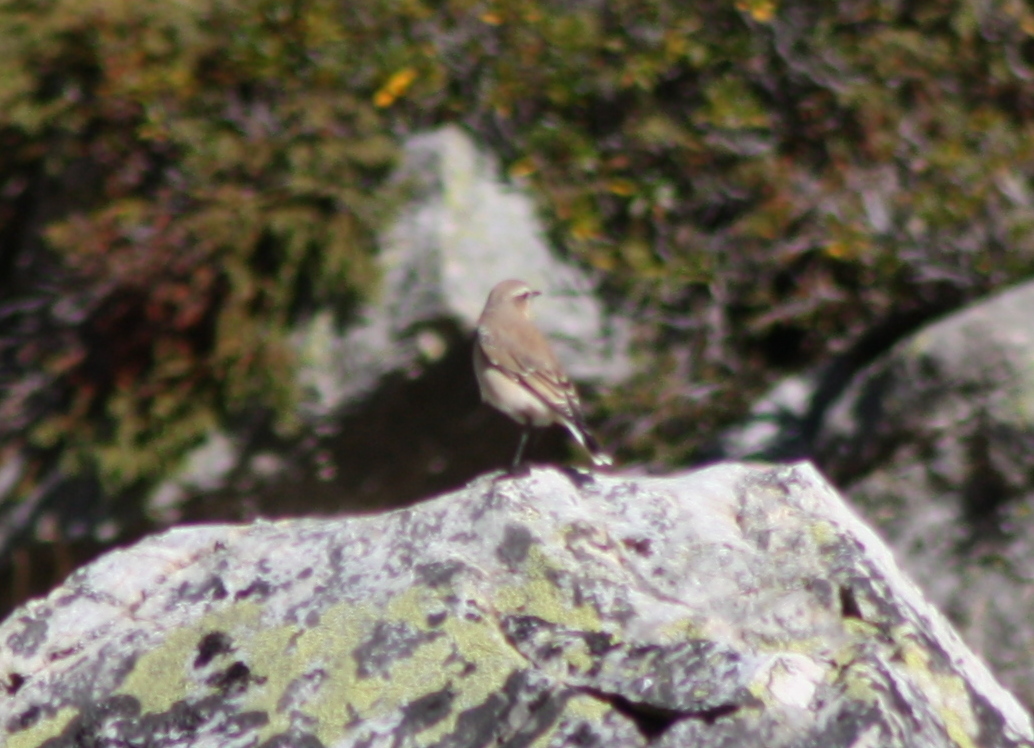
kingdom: Animalia
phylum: Chordata
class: Aves
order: Passeriformes
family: Muscicapidae
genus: Oenanthe
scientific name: Oenanthe oenanthe
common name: Northern wheatear
